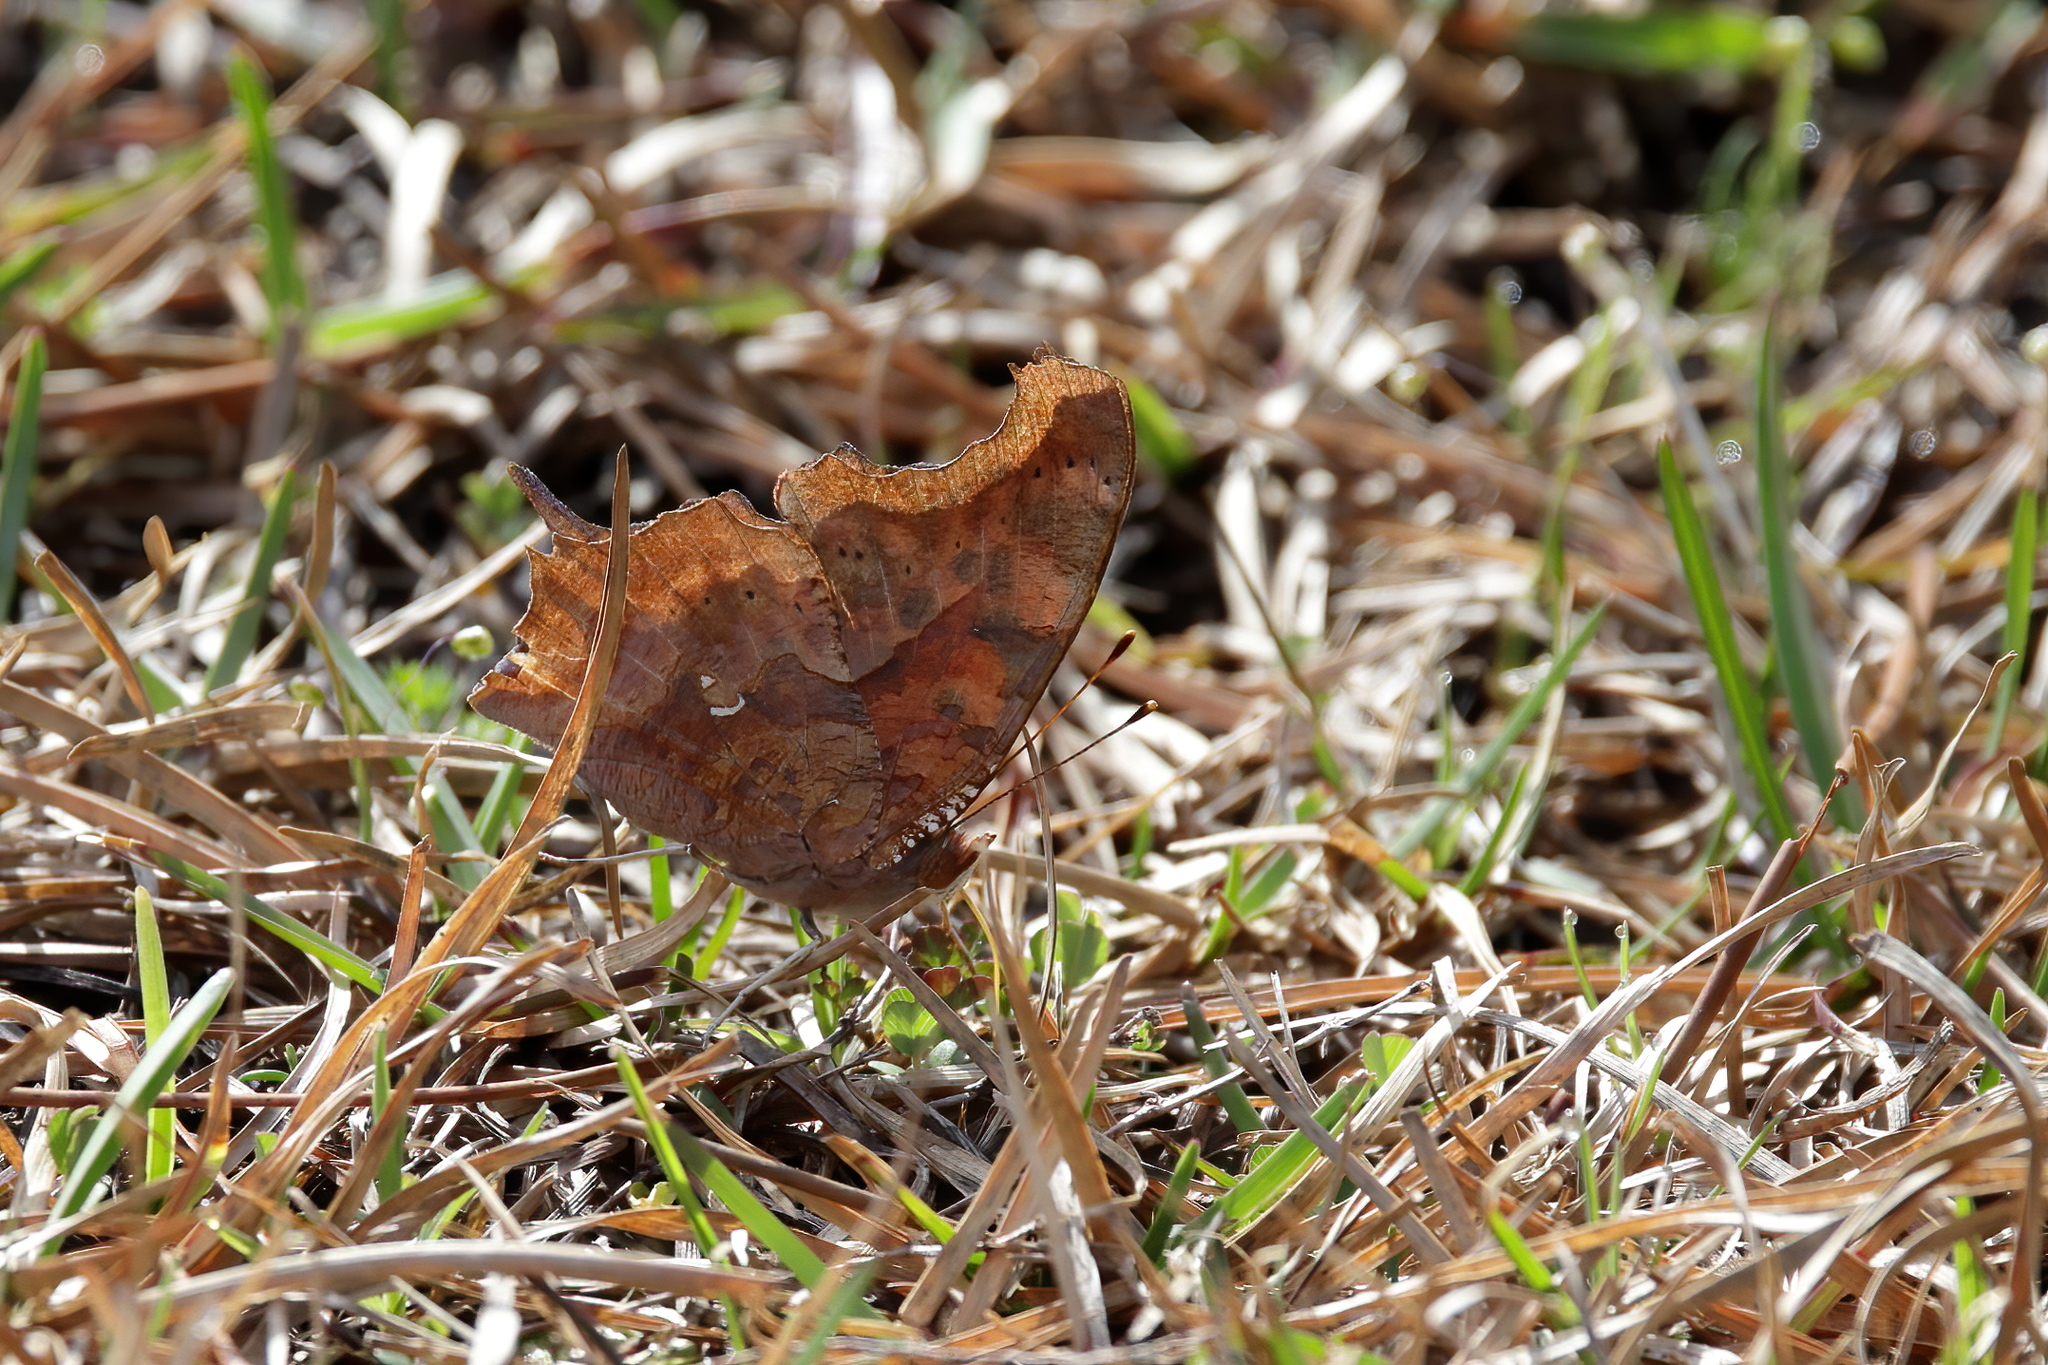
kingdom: Animalia
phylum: Arthropoda
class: Insecta
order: Lepidoptera
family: Nymphalidae
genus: Polygonia
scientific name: Polygonia interrogationis
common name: Question mark
